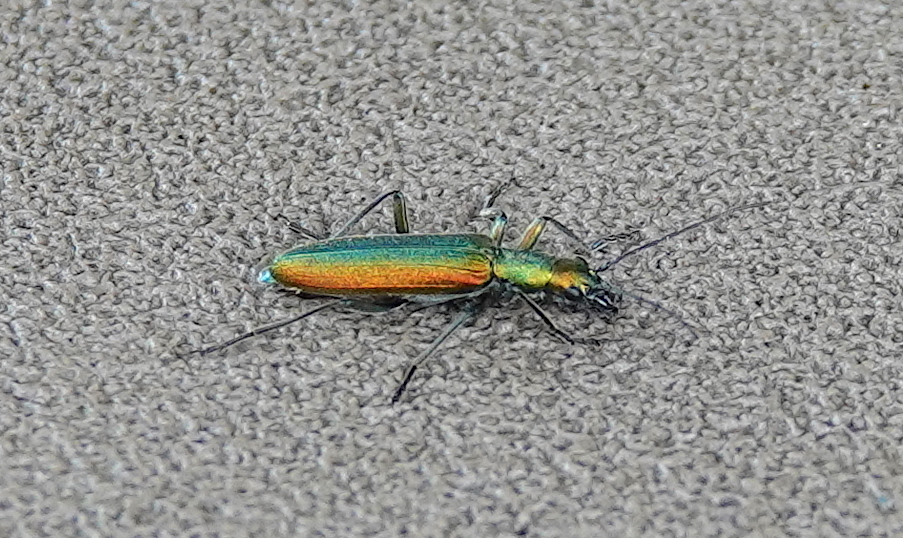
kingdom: Animalia
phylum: Arthropoda
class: Insecta
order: Coleoptera
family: Oedemeridae
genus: Chrysanthia
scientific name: Chrysanthia reitteri
